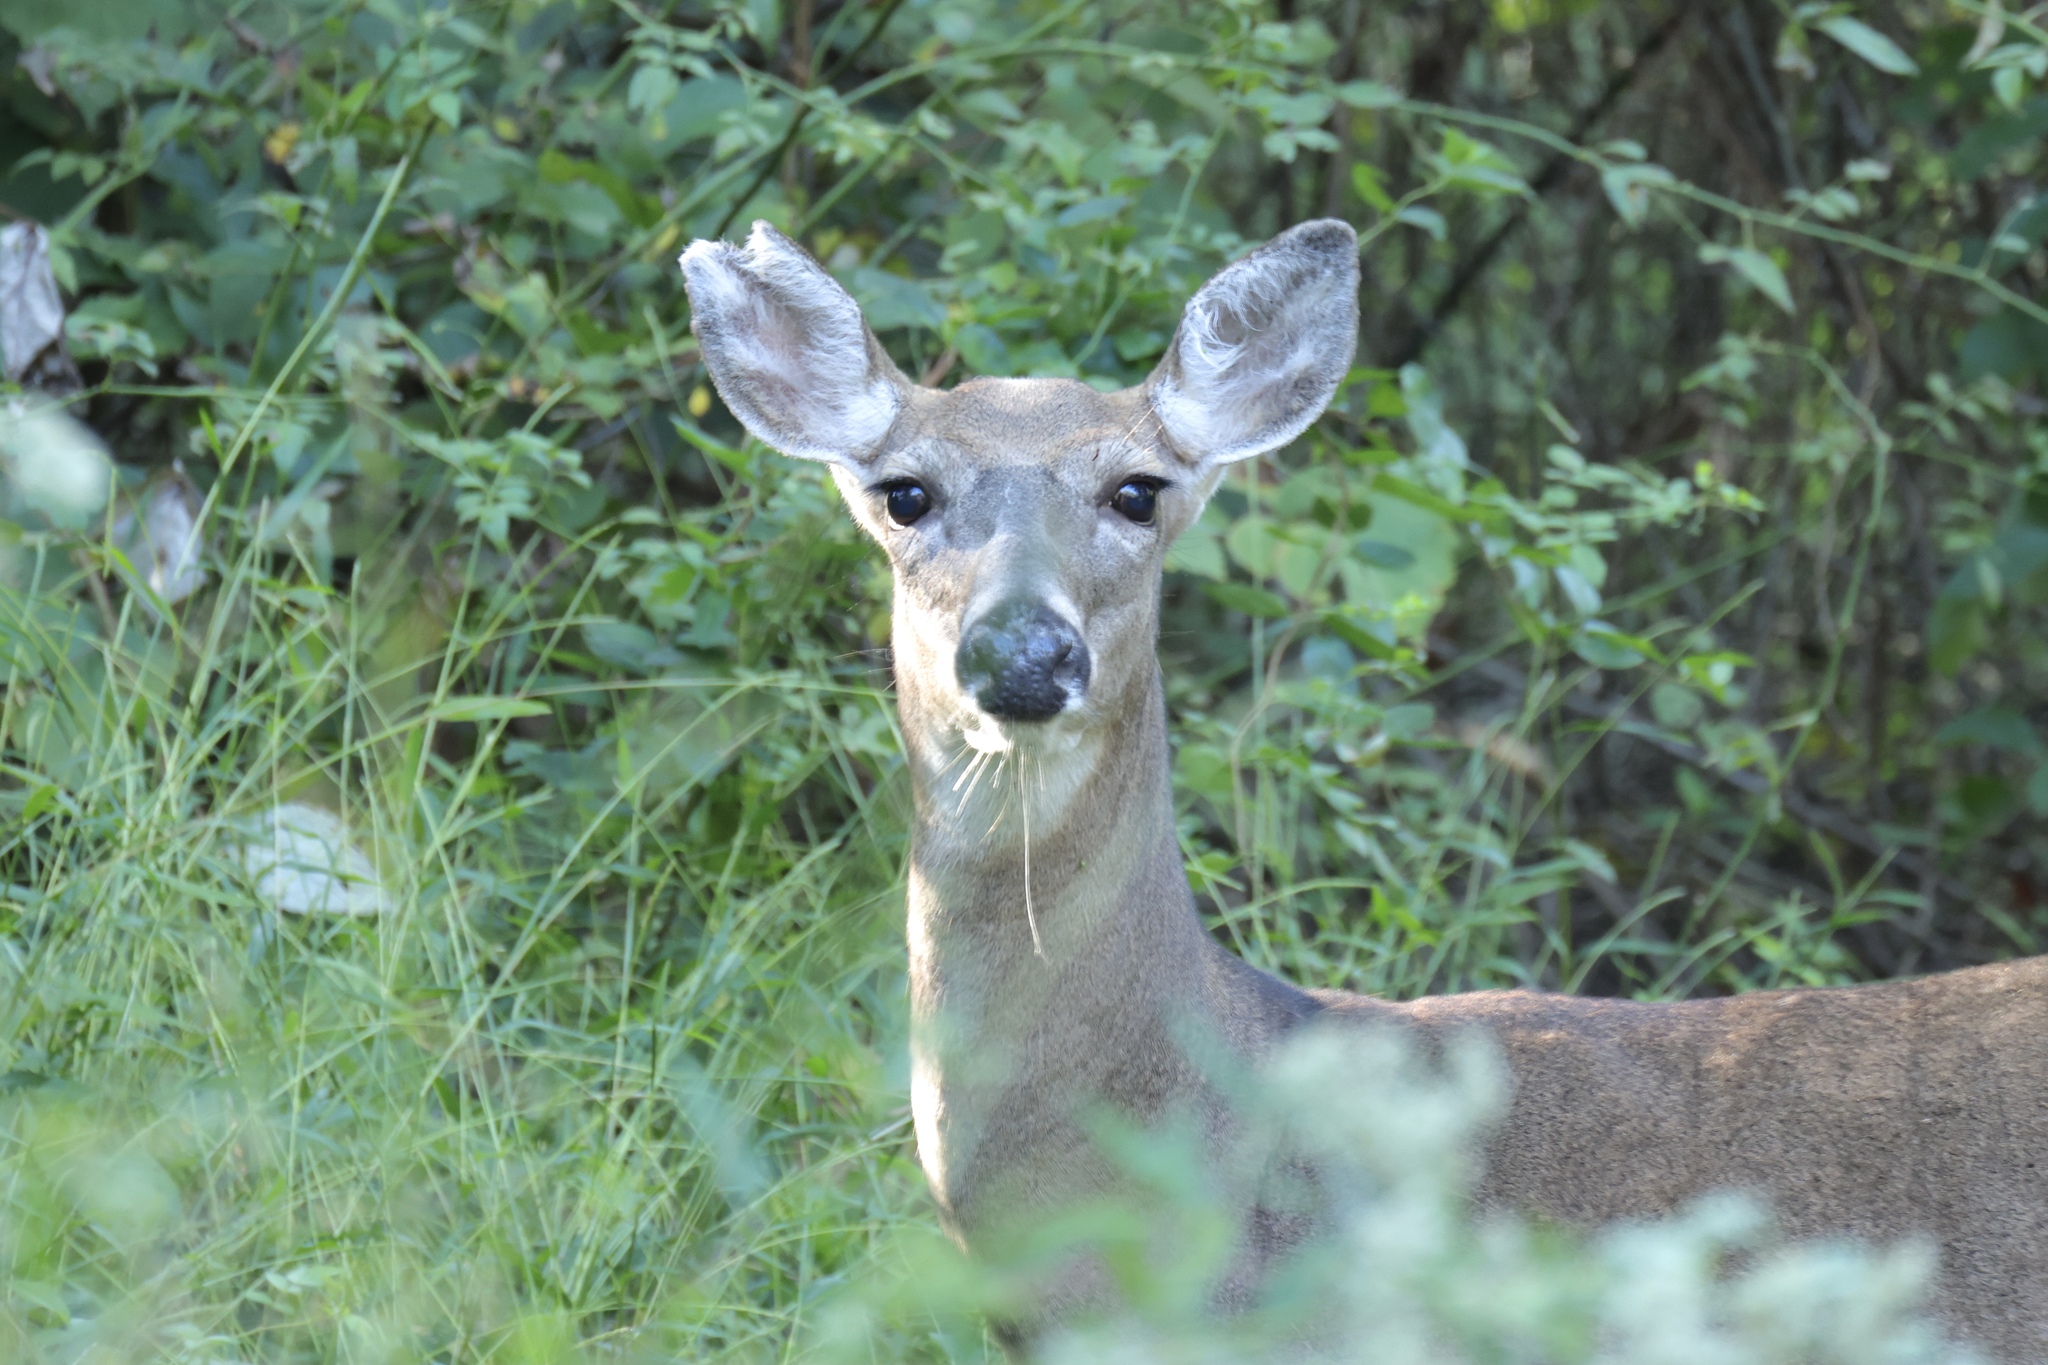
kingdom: Animalia
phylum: Chordata
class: Mammalia
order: Artiodactyla
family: Cervidae
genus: Odocoileus
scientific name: Odocoileus virginianus
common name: White-tailed deer
